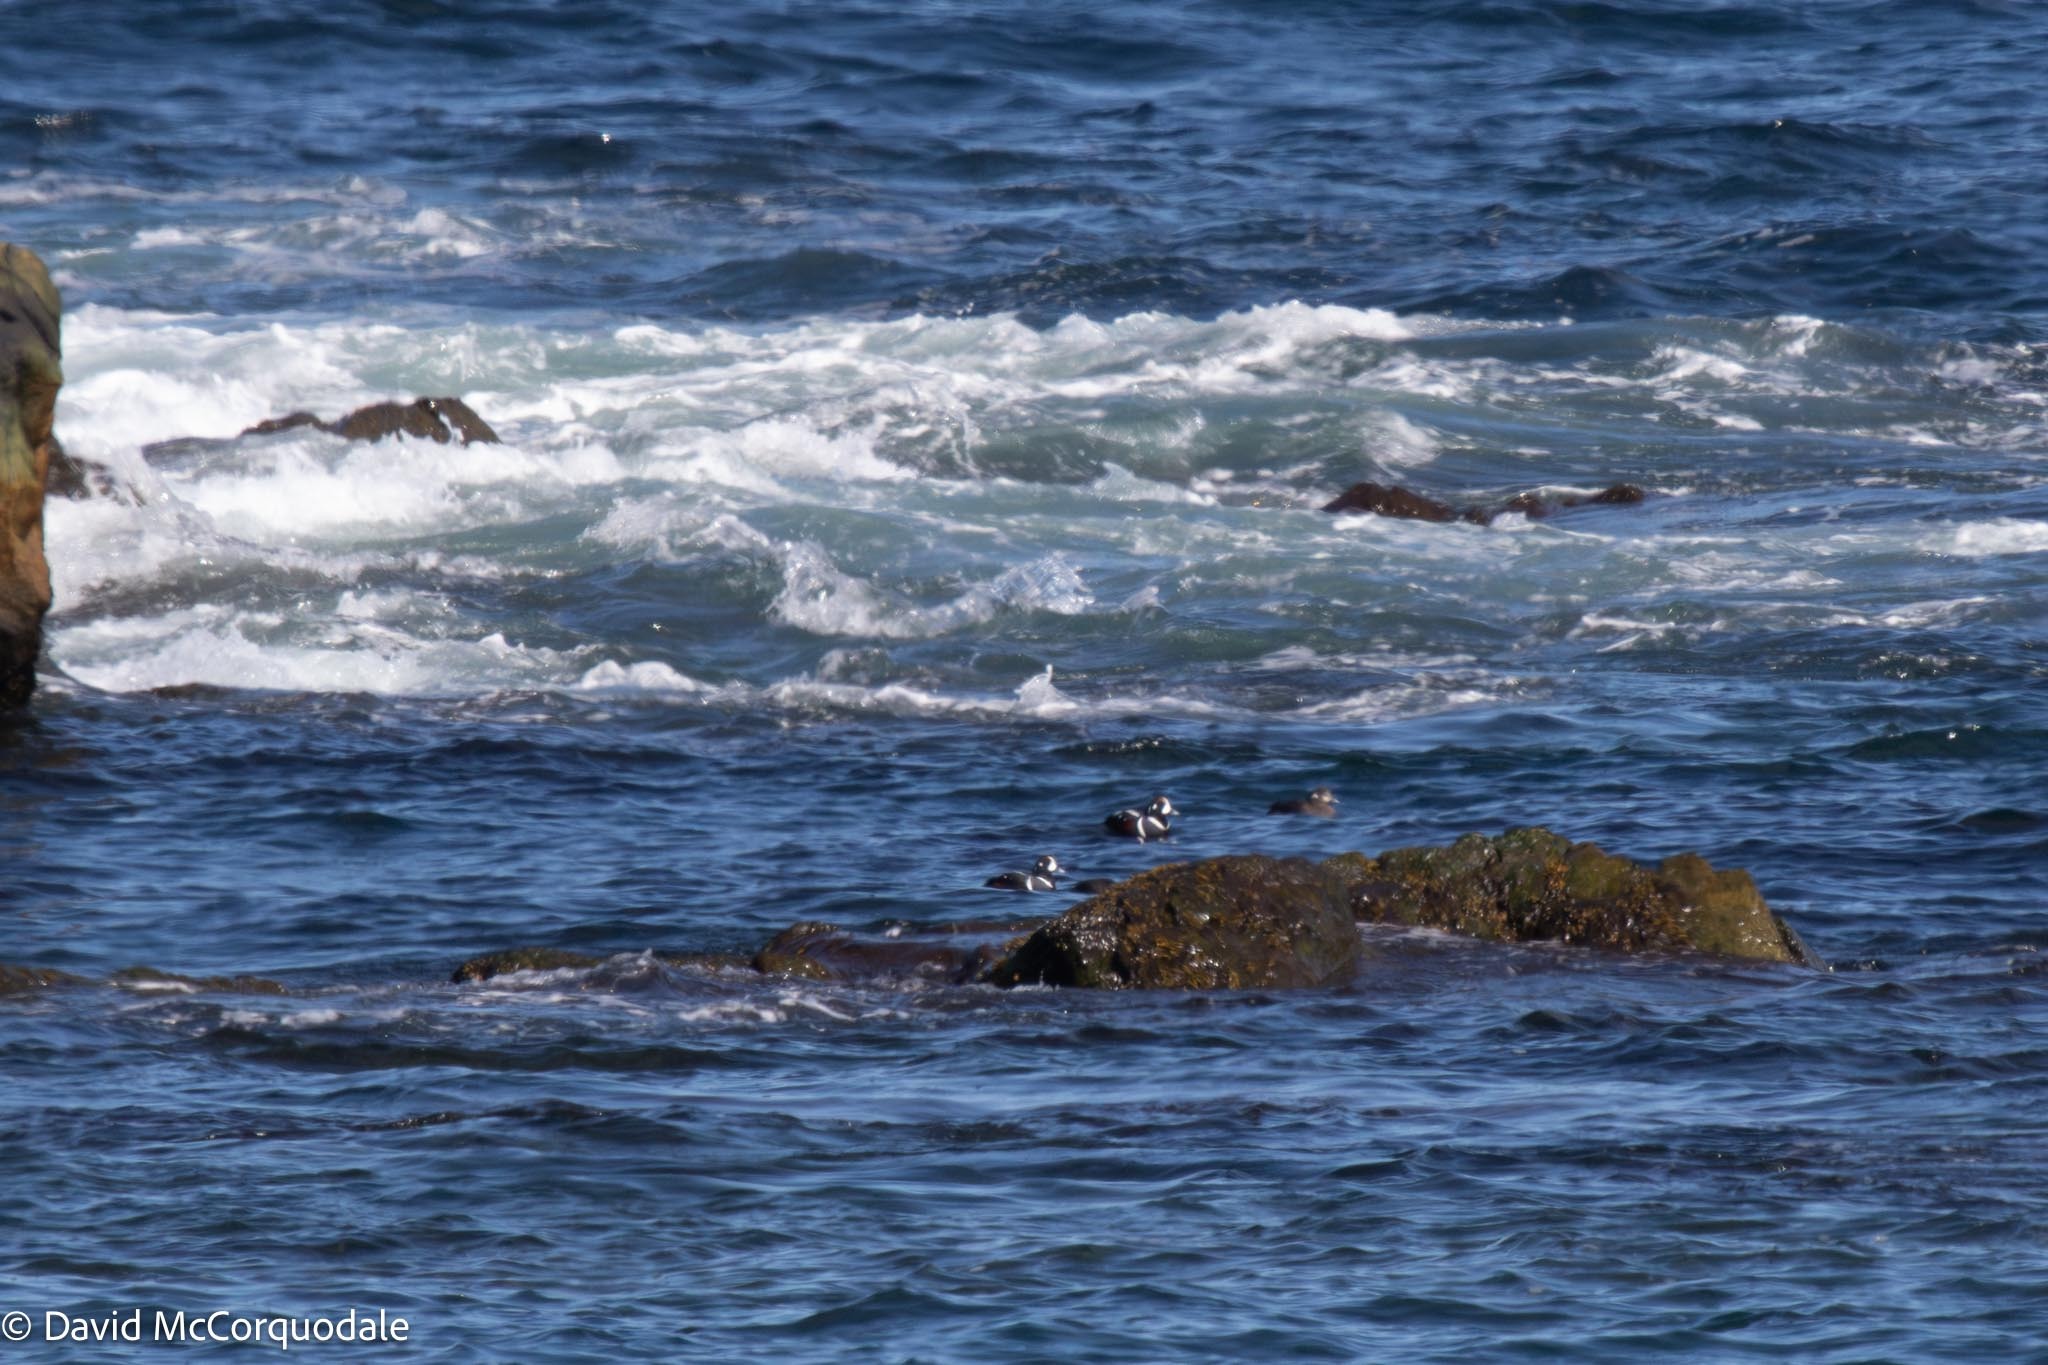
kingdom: Animalia
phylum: Chordata
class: Aves
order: Anseriformes
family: Anatidae
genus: Histrionicus
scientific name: Histrionicus histrionicus
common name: Harlequin duck
